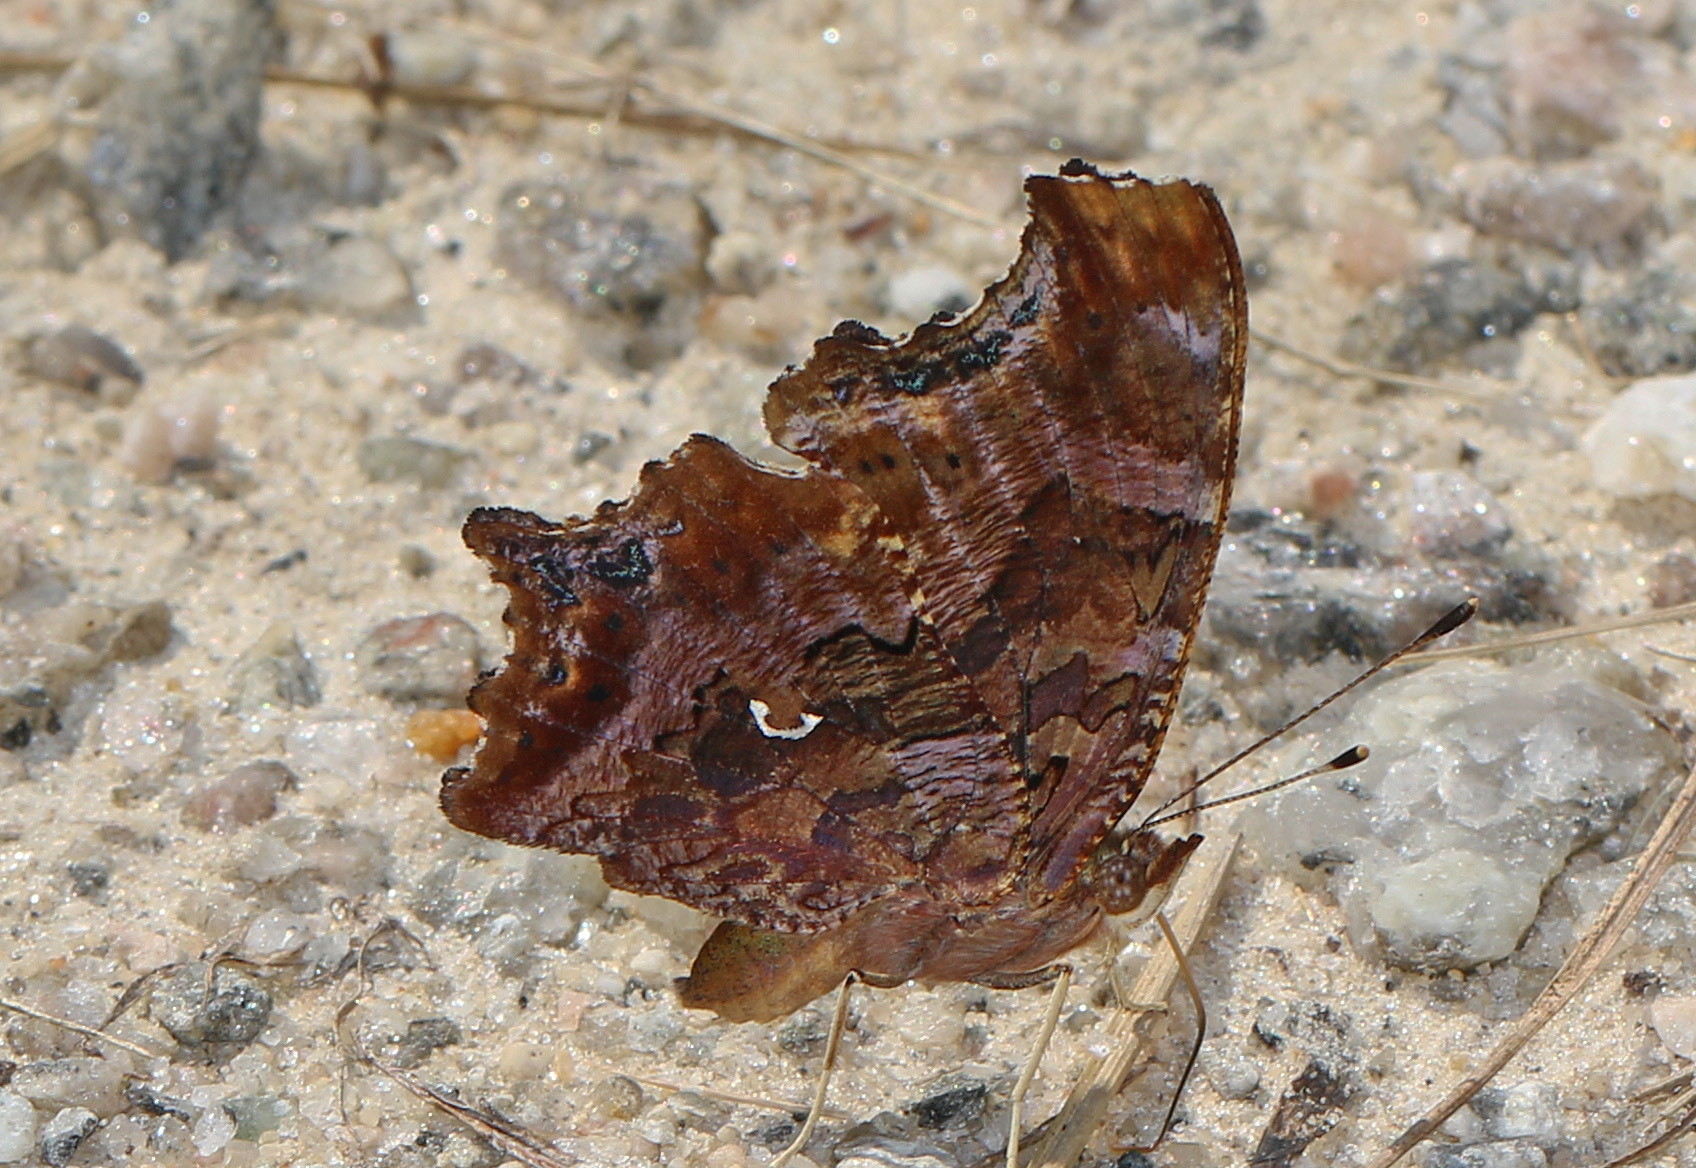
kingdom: Animalia
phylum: Arthropoda
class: Insecta
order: Lepidoptera
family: Nymphalidae
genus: Polygonia
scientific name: Polygonia comma
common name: Eastern comma
